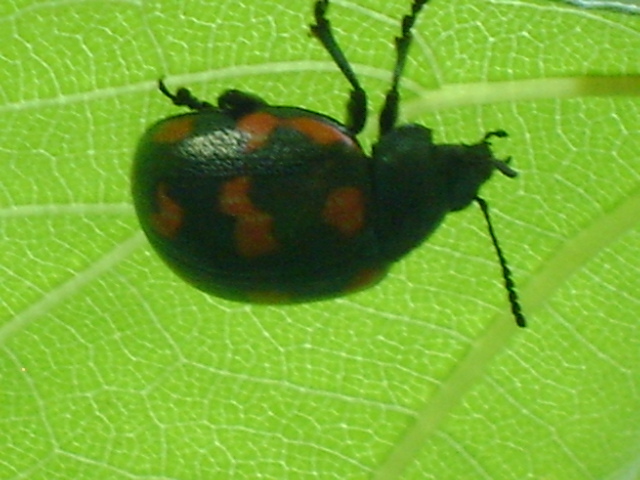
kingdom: Animalia
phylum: Arthropoda
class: Insecta
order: Coleoptera
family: Chrysomelidae
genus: Labidomera
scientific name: Labidomera
